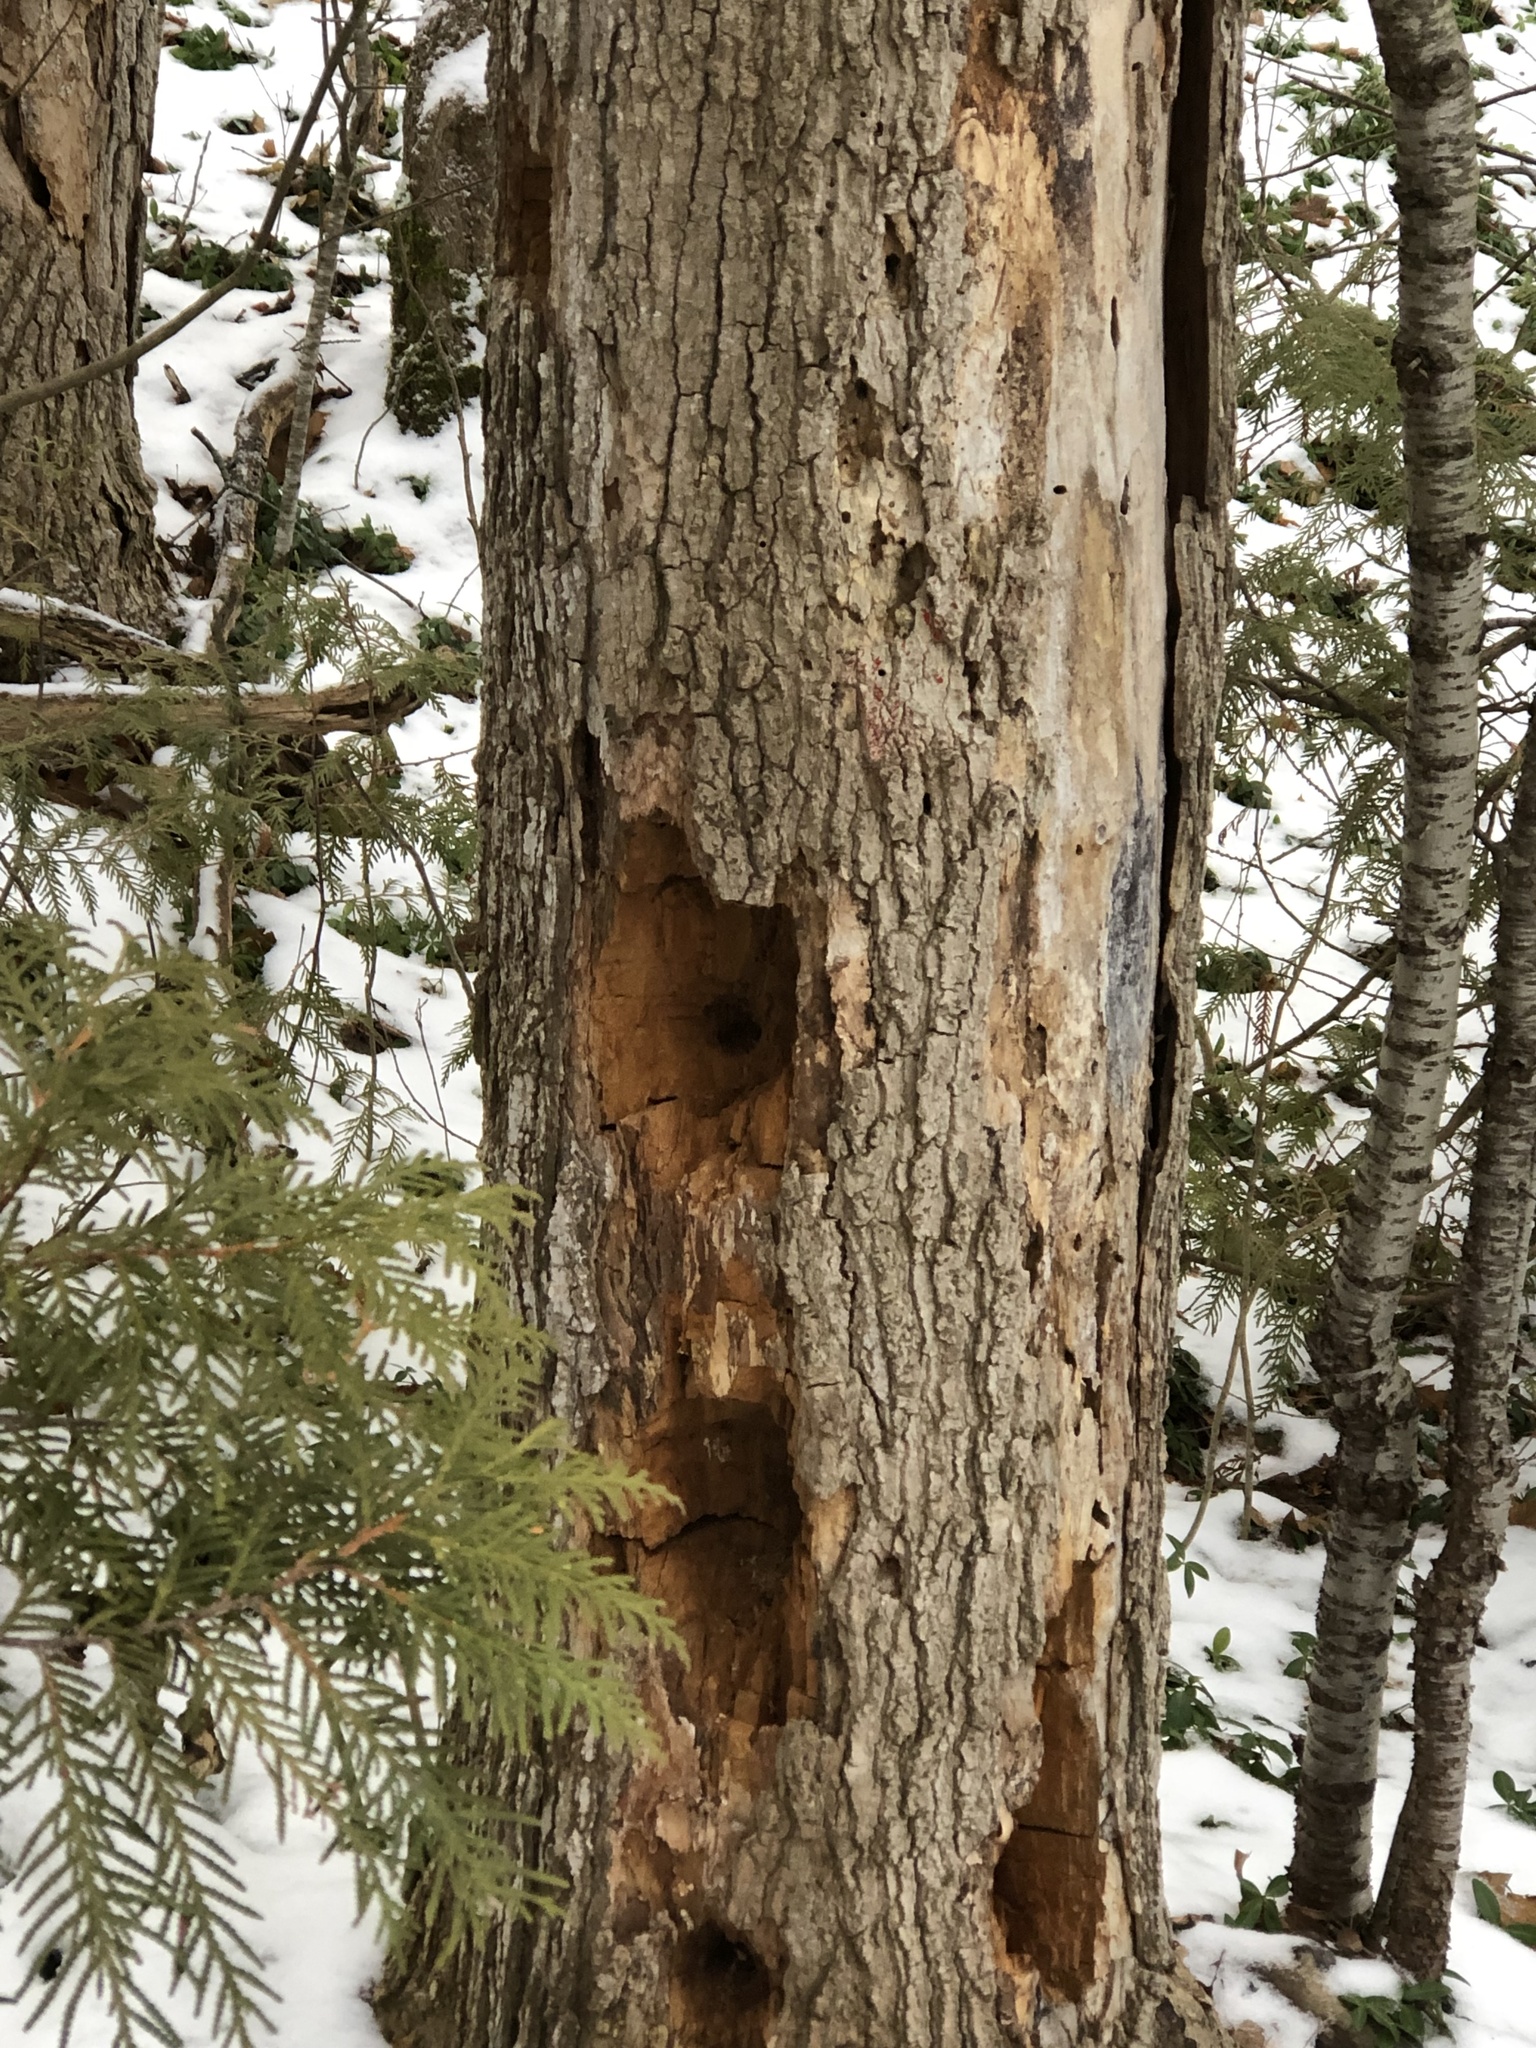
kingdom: Animalia
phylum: Chordata
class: Aves
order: Piciformes
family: Picidae
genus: Dryocopus
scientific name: Dryocopus pileatus
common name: Pileated woodpecker
